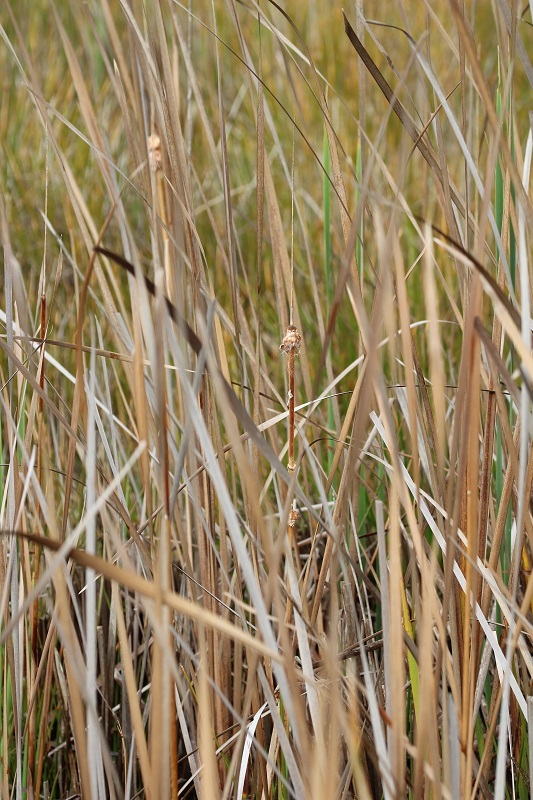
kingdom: Plantae
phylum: Tracheophyta
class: Liliopsida
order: Poales
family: Typhaceae
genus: Typha
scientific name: Typha capensis
